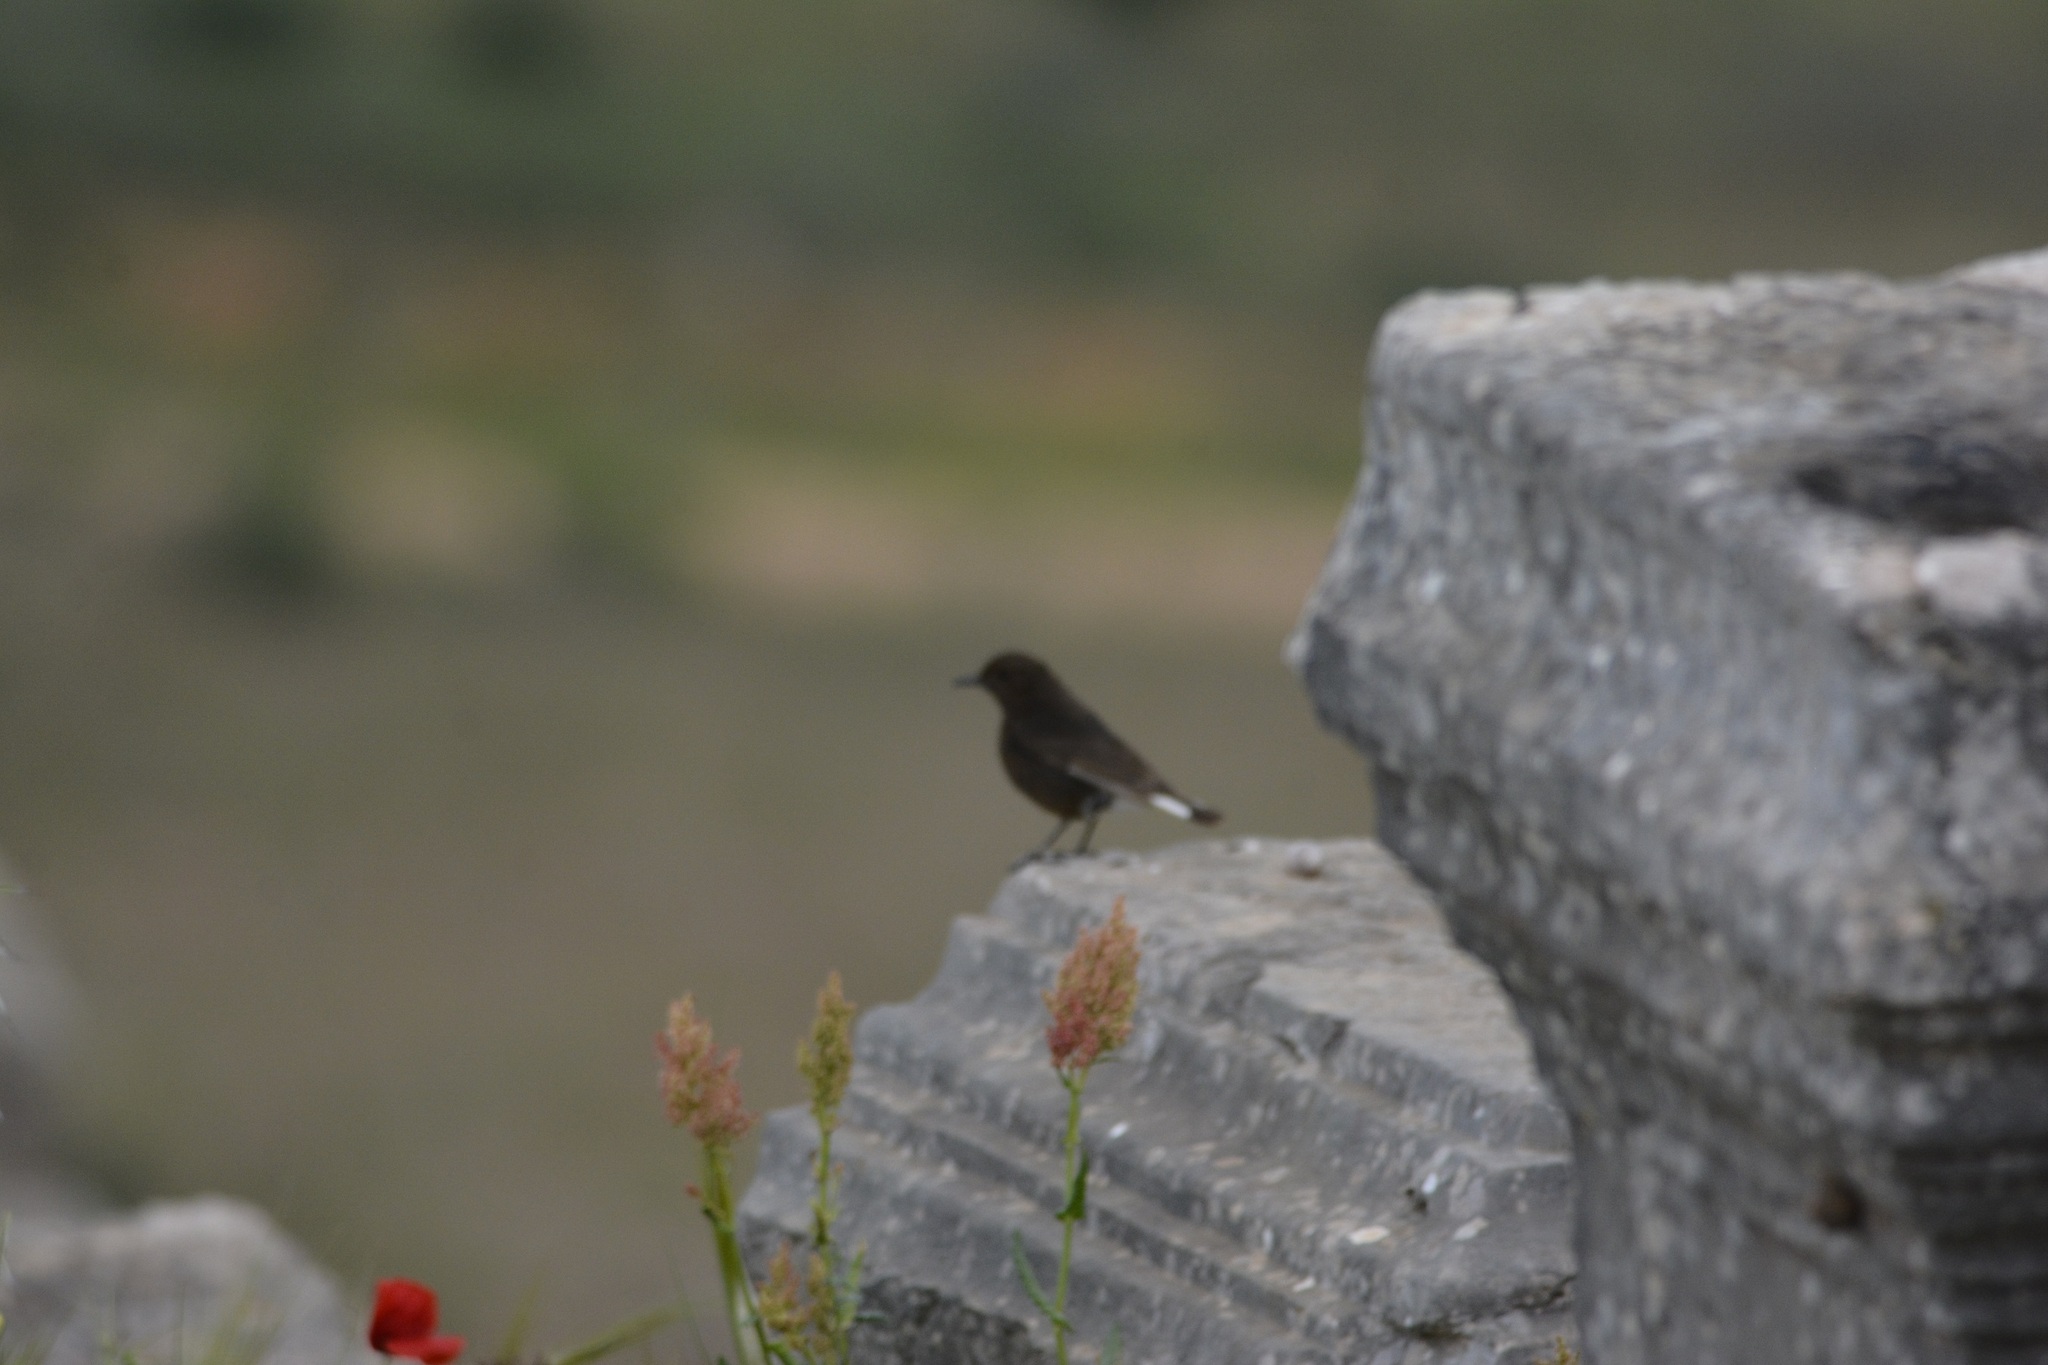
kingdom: Animalia
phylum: Chordata
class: Aves
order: Passeriformes
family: Muscicapidae
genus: Oenanthe
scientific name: Oenanthe leucura
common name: Black wheatear
